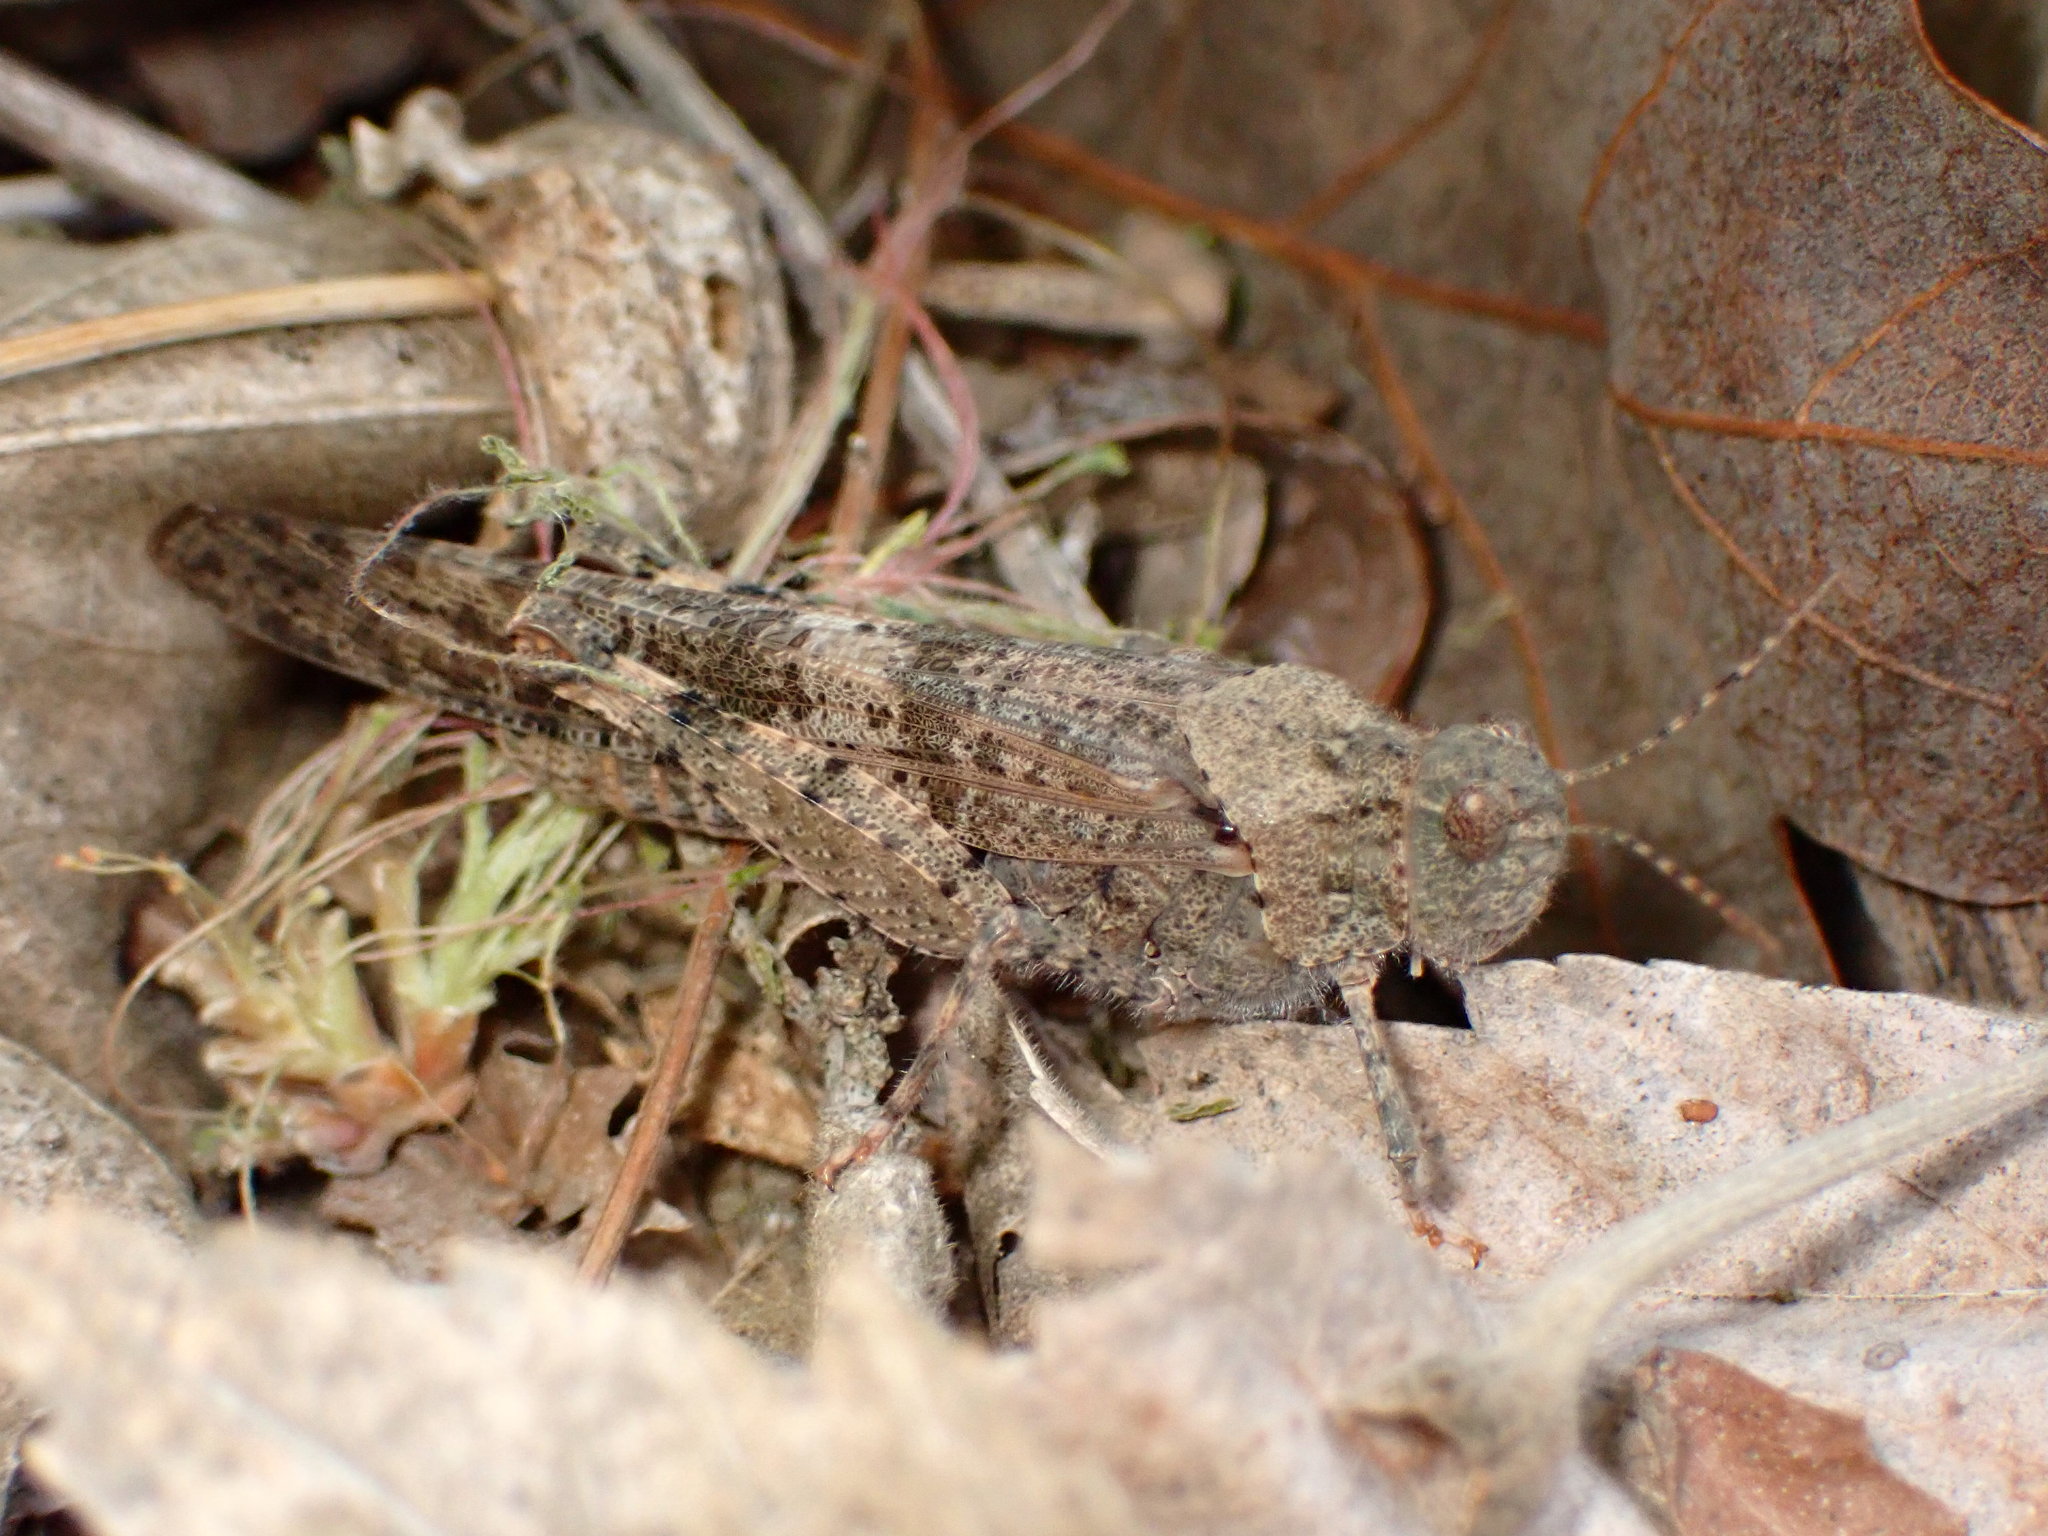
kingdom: Animalia
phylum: Arthropoda
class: Insecta
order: Orthoptera
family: Acrididae
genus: Trimerotropis
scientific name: Trimerotropis pallidipennis
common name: Pallid-winged grasshopper
